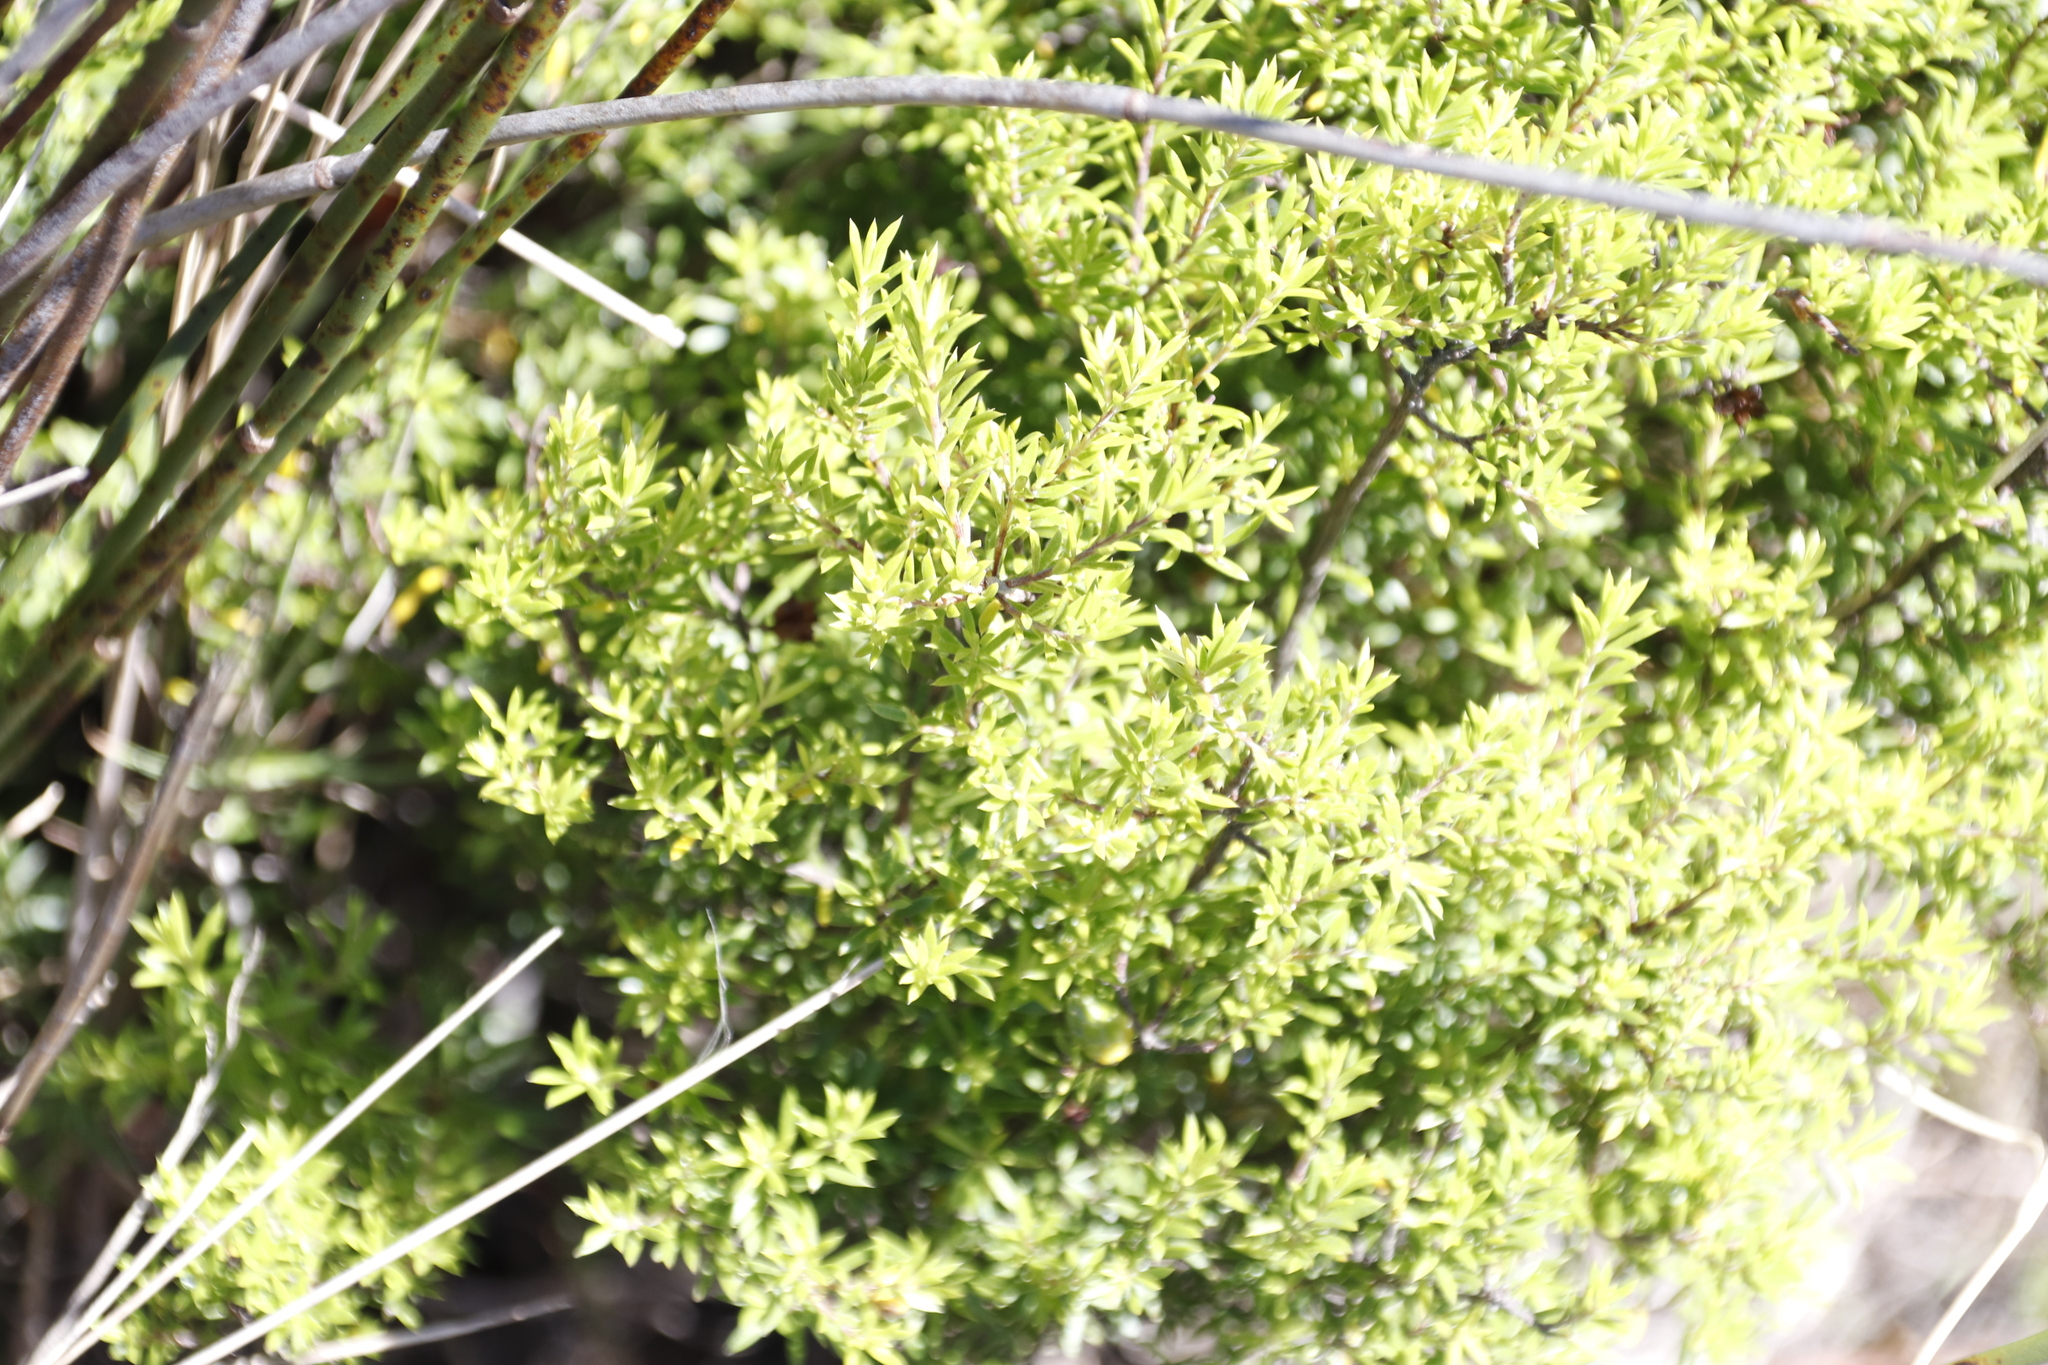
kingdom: Plantae
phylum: Tracheophyta
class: Magnoliopsida
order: Sapindales
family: Rutaceae
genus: Coleonema
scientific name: Coleonema album
